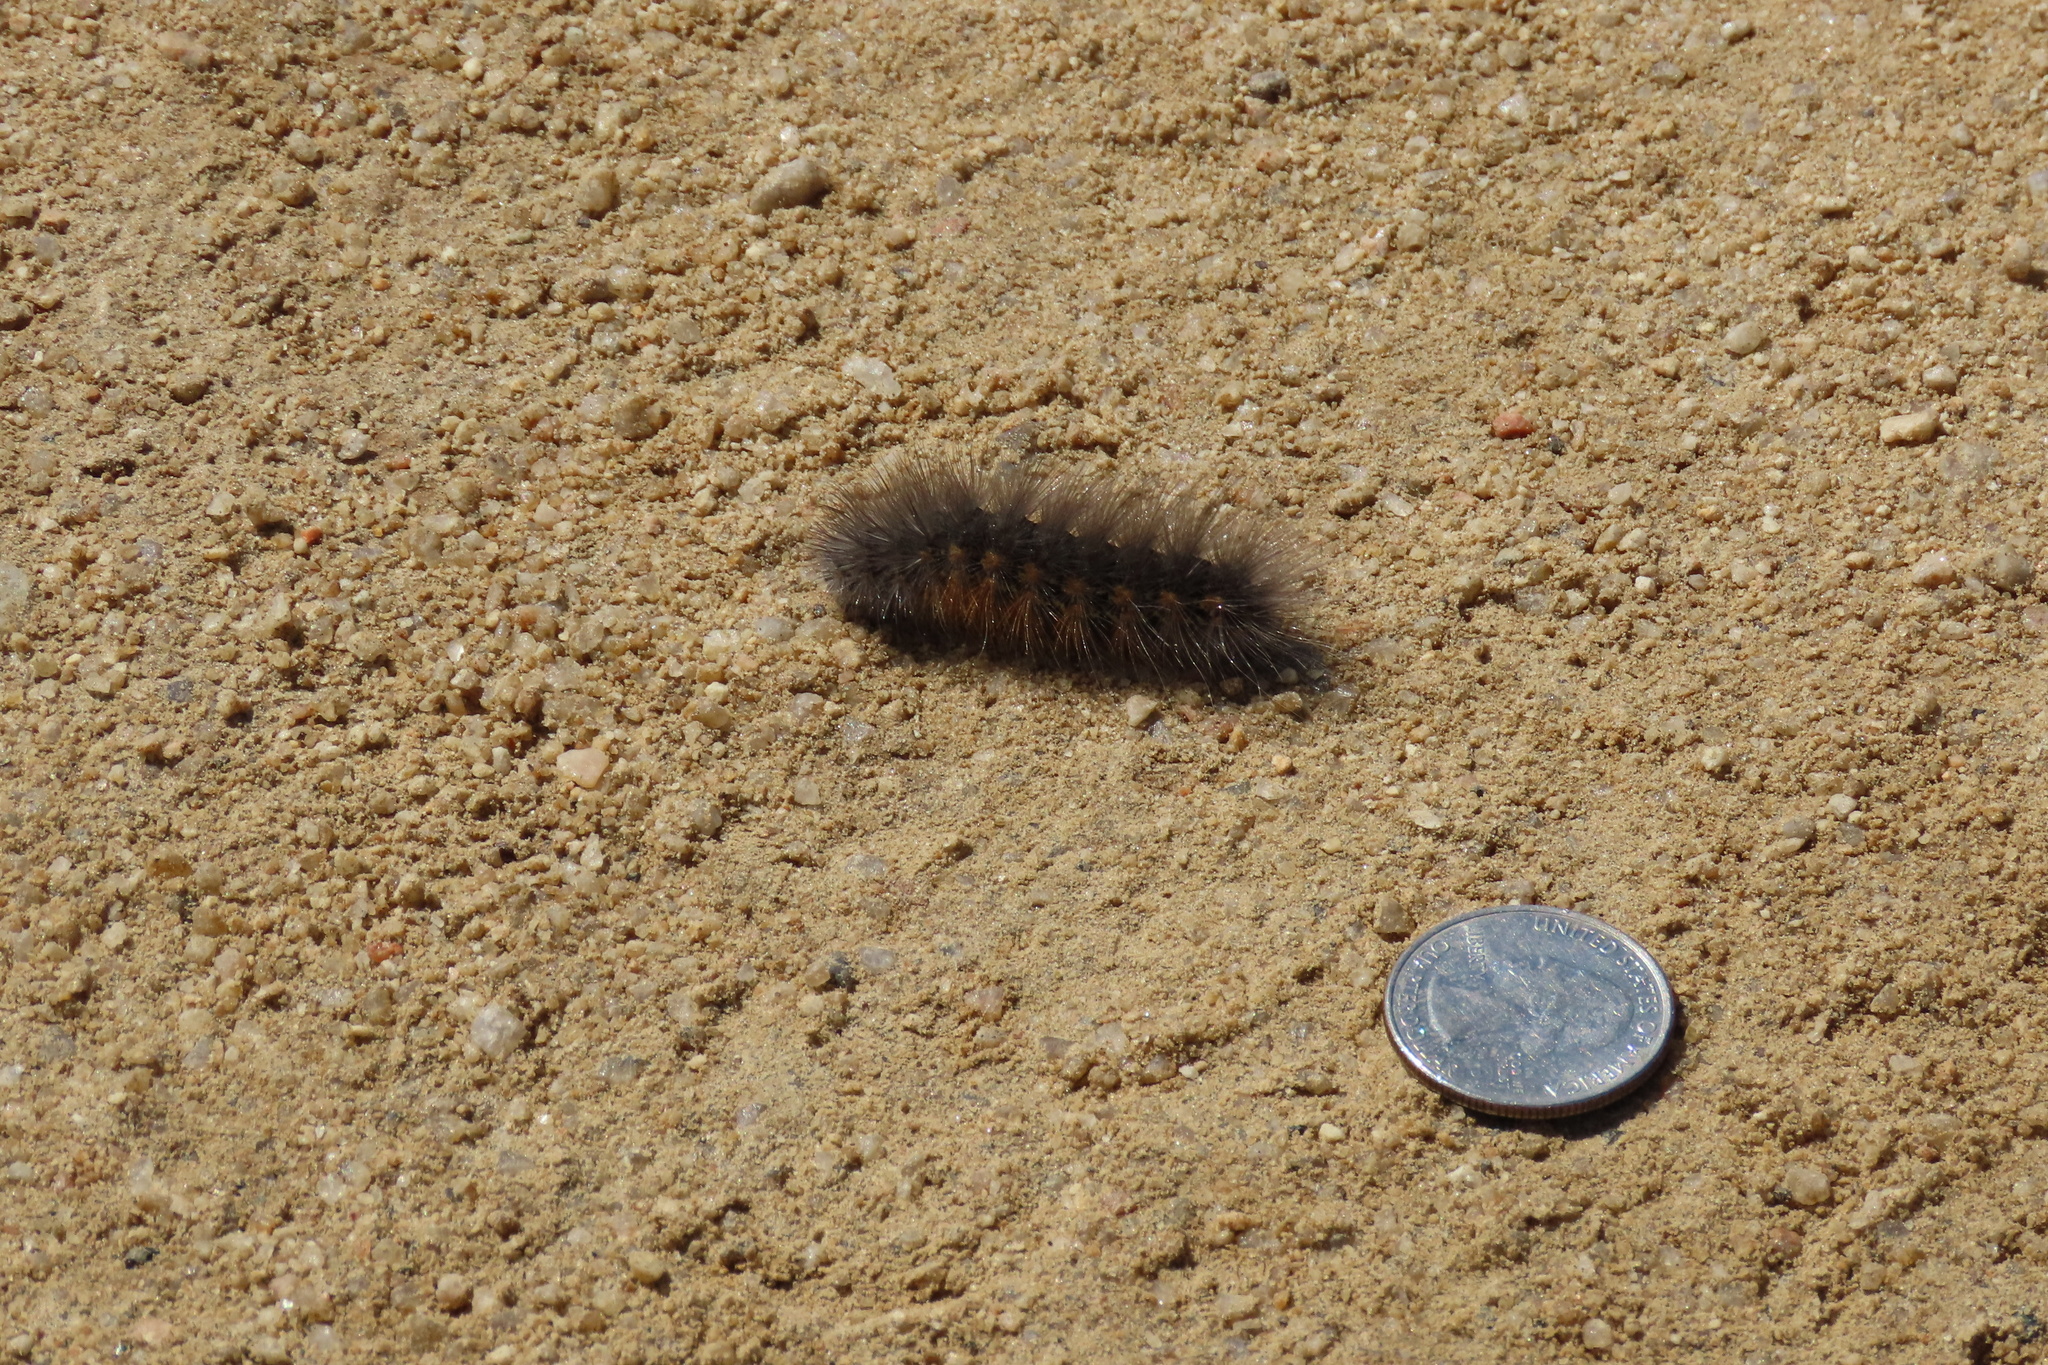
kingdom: Animalia
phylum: Arthropoda
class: Insecta
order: Lepidoptera
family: Erebidae
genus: Estigmene
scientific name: Estigmene acrea
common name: Salt marsh moth
